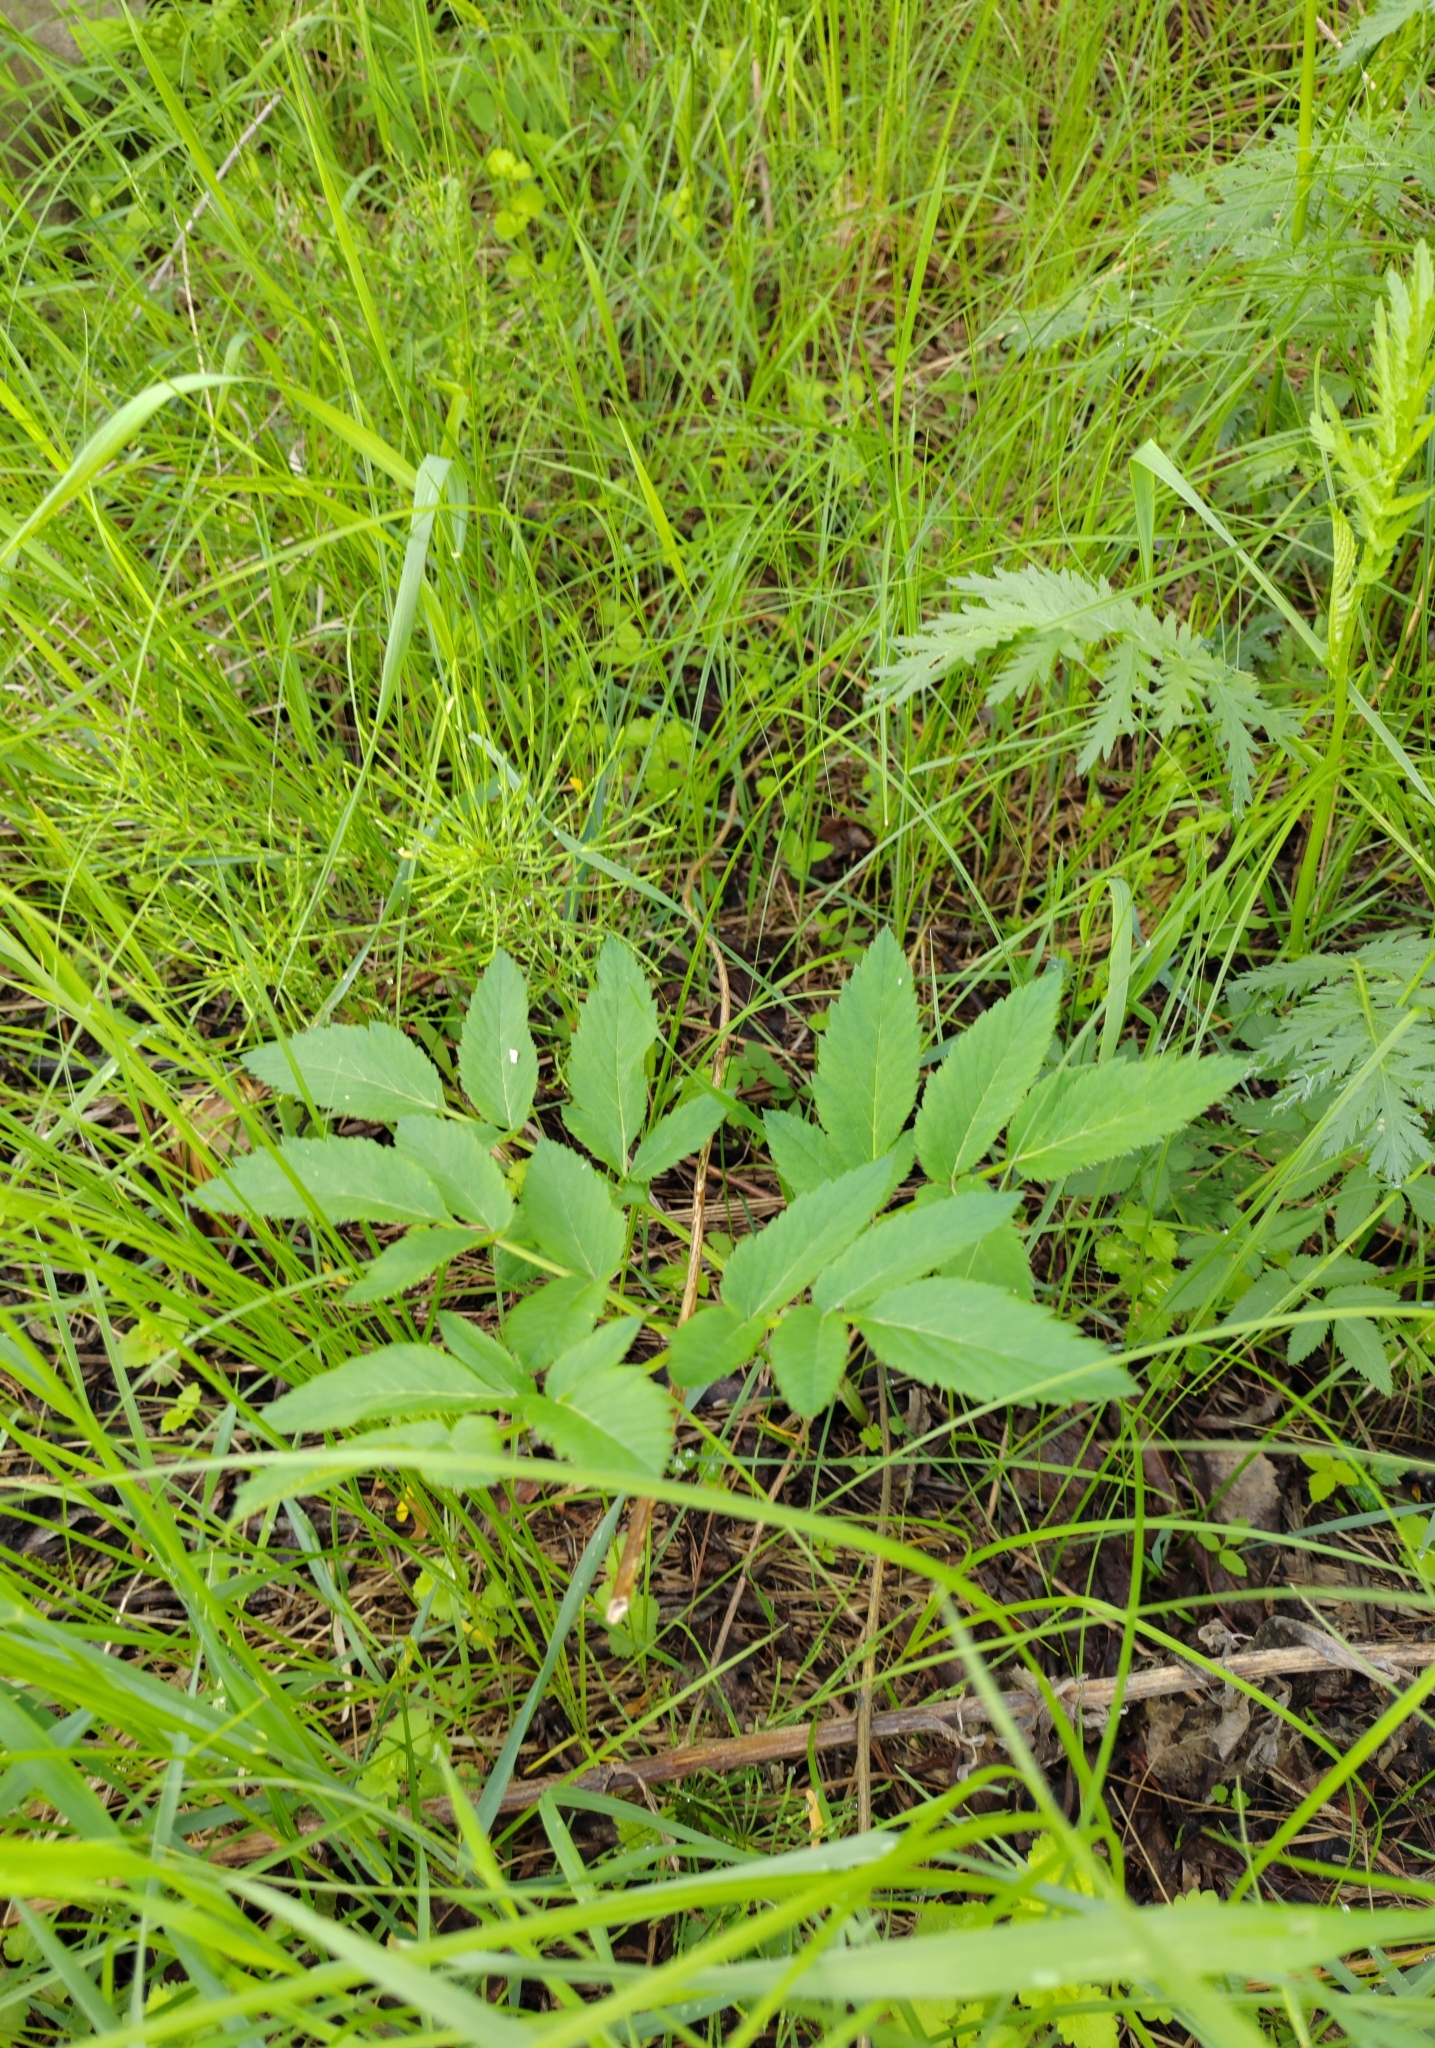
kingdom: Plantae
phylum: Tracheophyta
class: Magnoliopsida
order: Apiales
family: Apiaceae
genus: Angelica
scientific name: Angelica sylvestris
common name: Wild angelica
